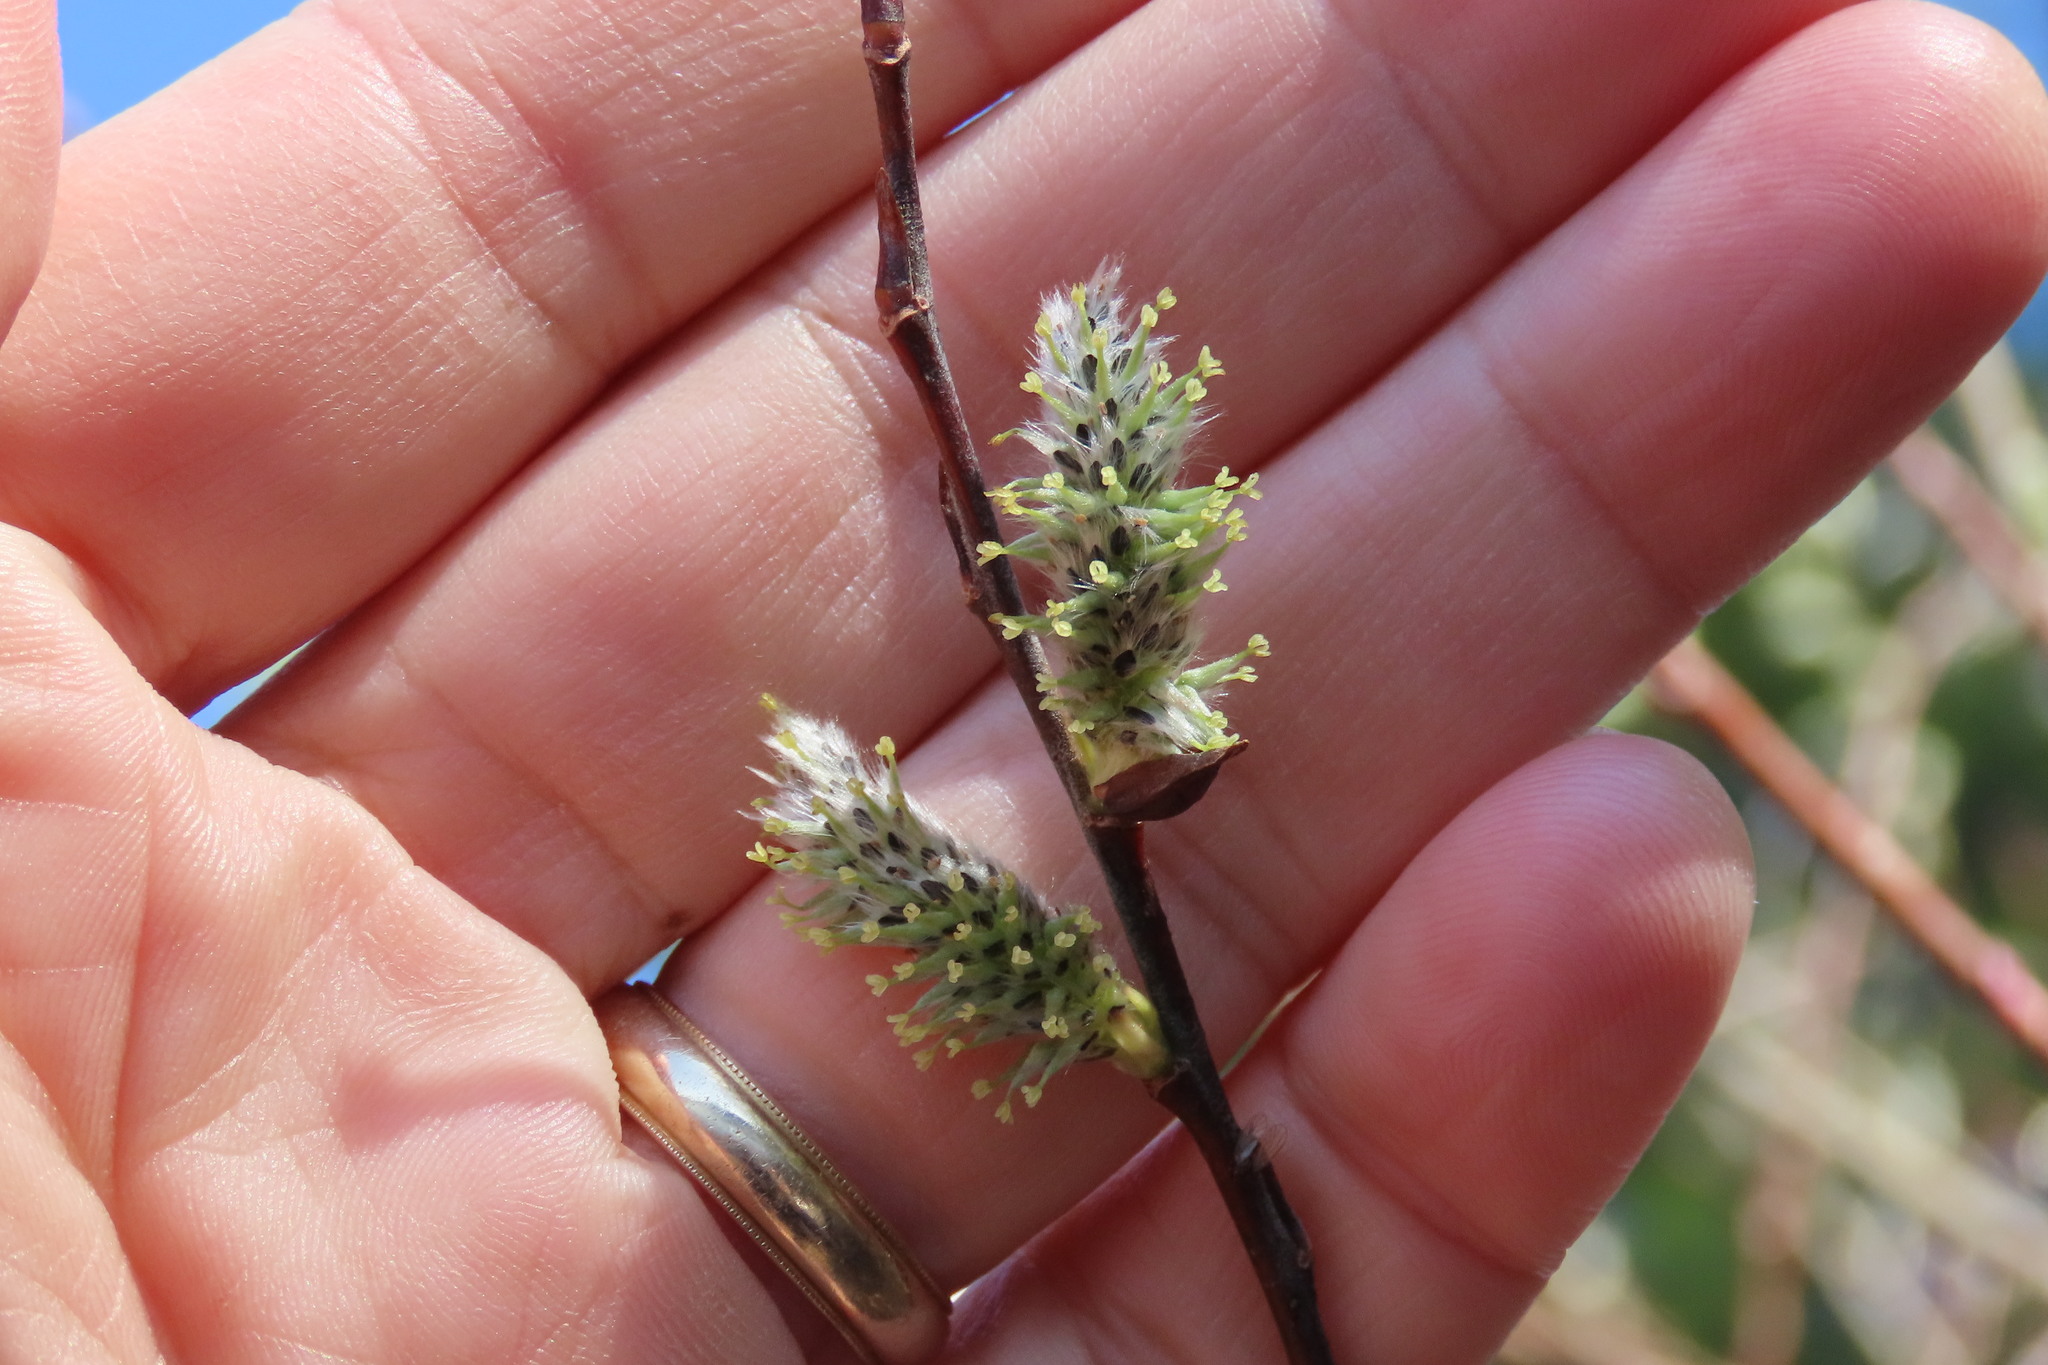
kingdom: Plantae
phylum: Tracheophyta
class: Magnoliopsida
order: Malpighiales
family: Salicaceae
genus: Salix
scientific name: Salix atrocinerea
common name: Rusty willow
